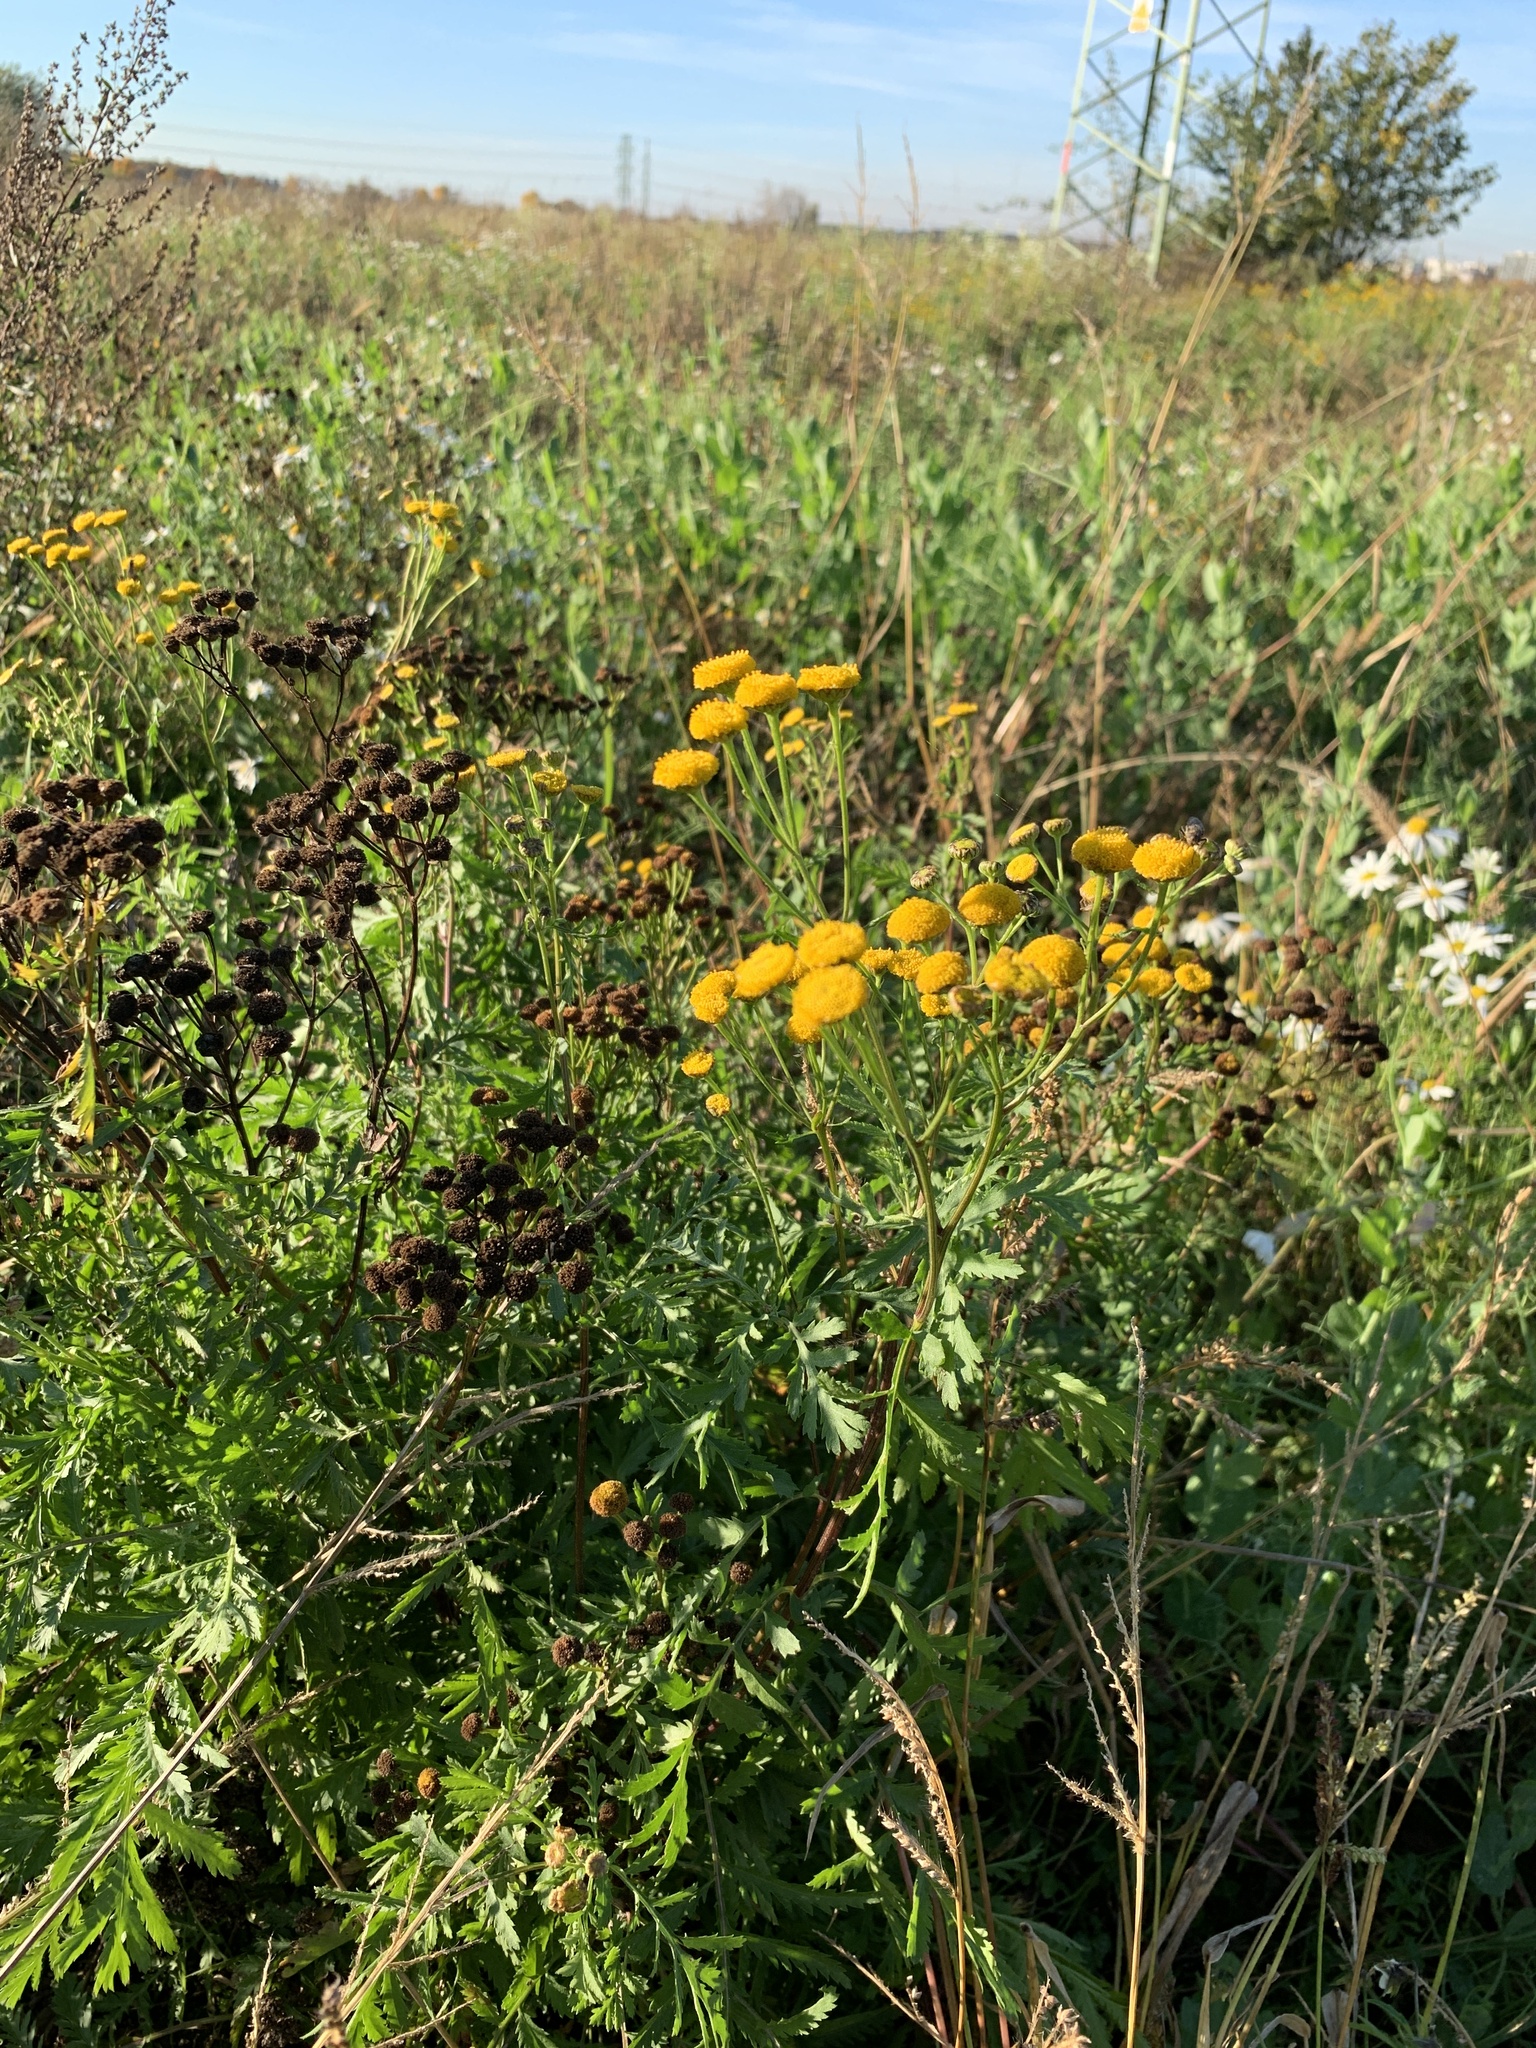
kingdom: Plantae
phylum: Tracheophyta
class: Magnoliopsida
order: Asterales
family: Asteraceae
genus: Tanacetum
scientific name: Tanacetum vulgare
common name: Common tansy
